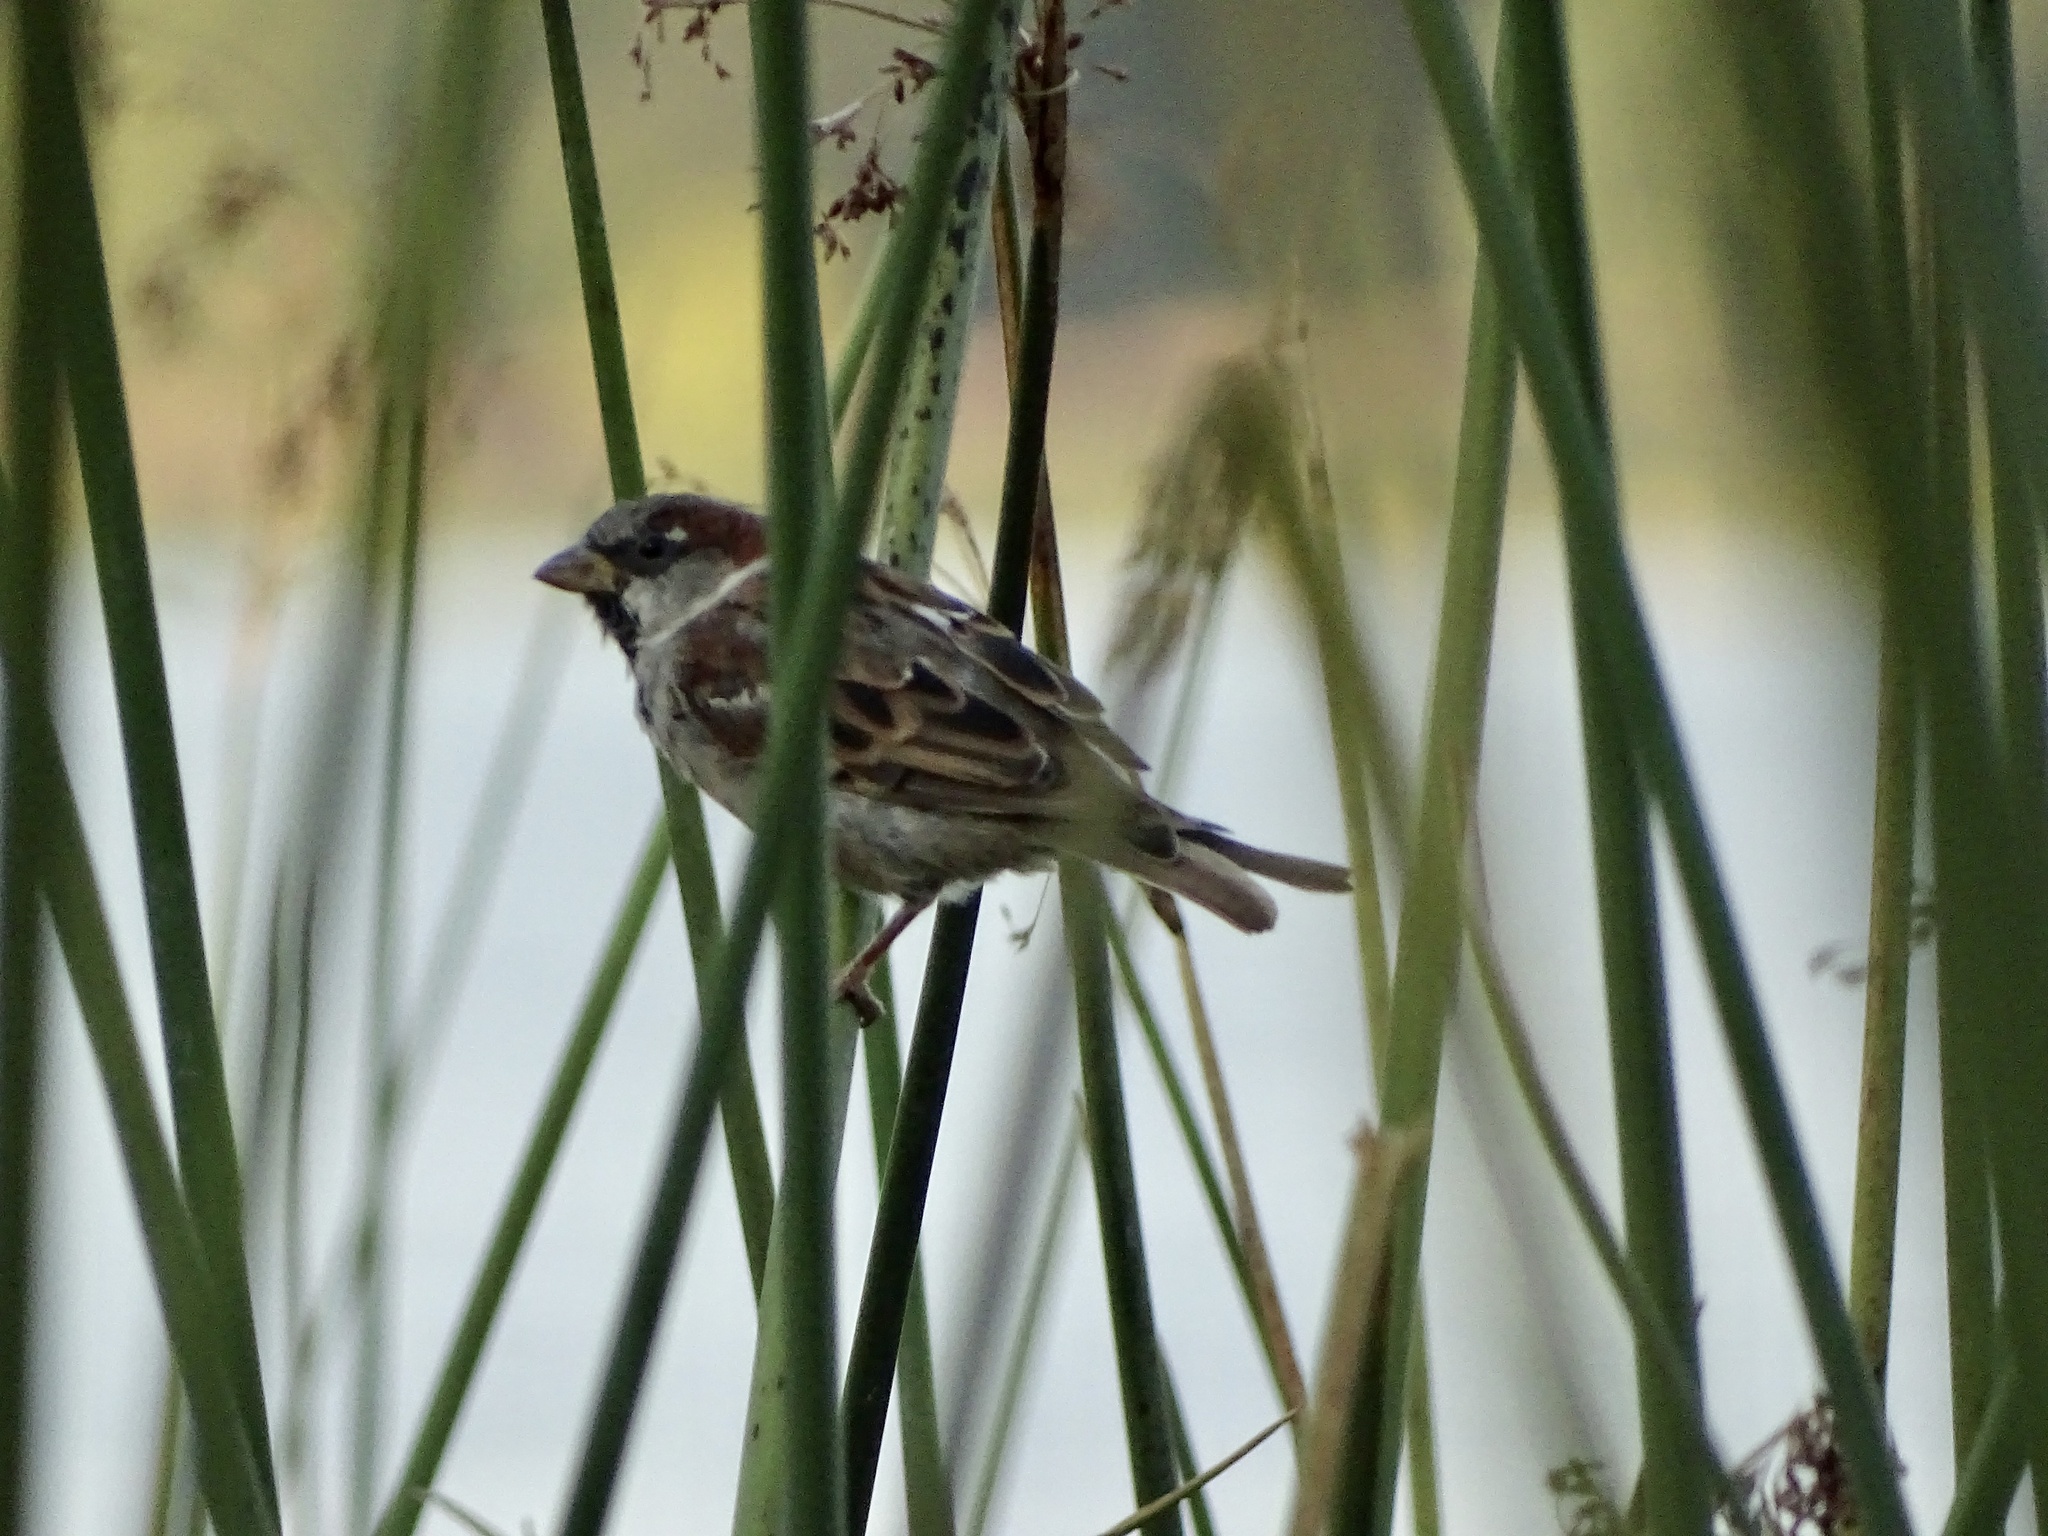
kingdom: Animalia
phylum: Chordata
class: Aves
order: Passeriformes
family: Passeridae
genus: Passer
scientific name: Passer domesticus
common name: House sparrow
